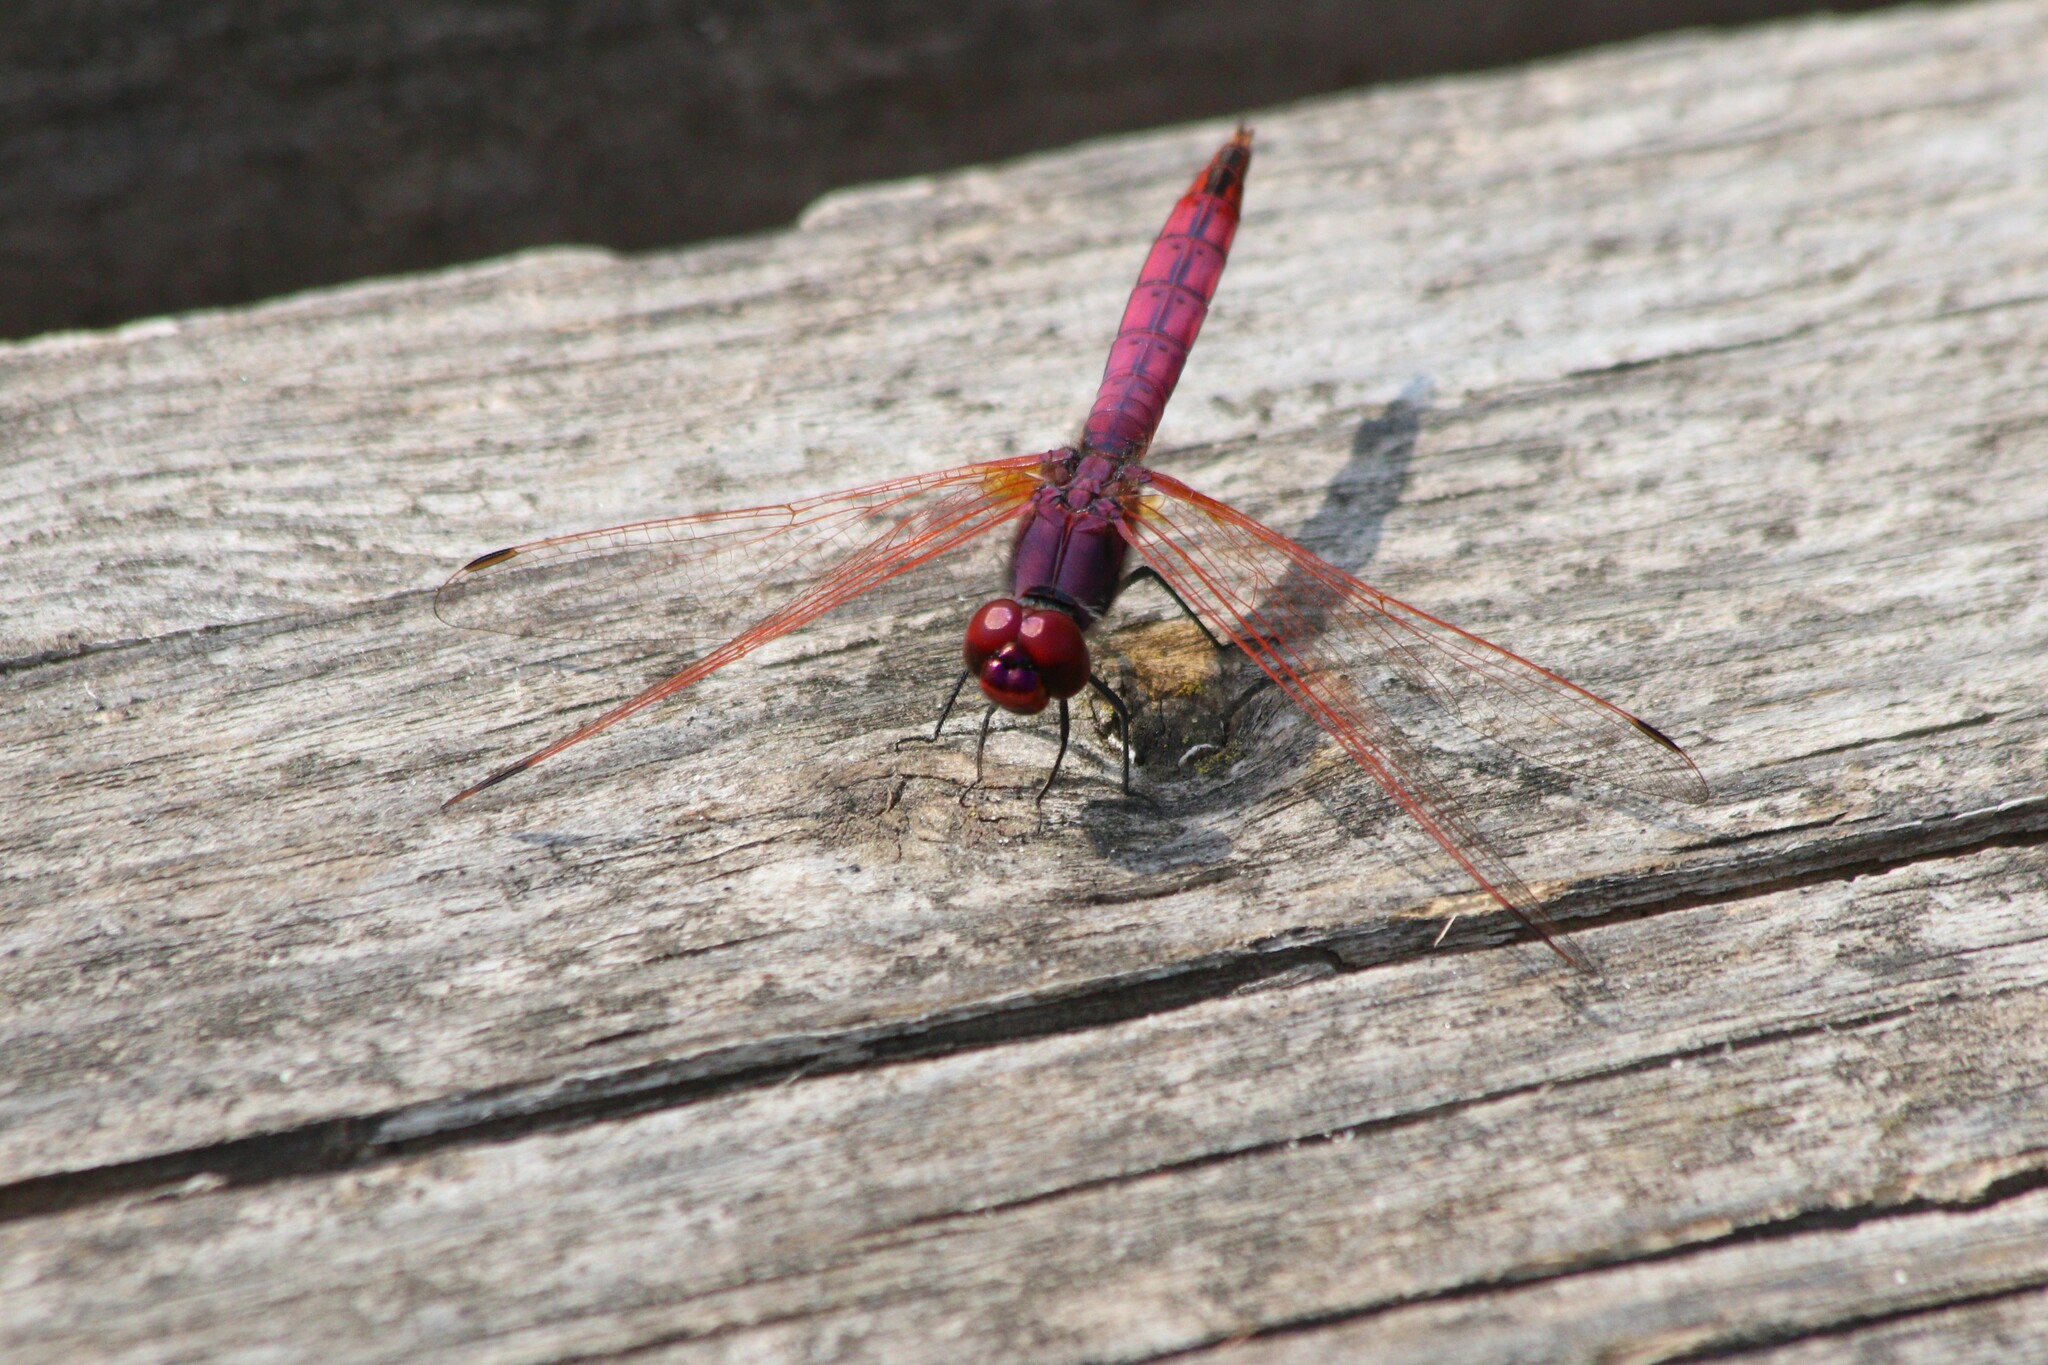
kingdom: Animalia
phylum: Arthropoda
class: Insecta
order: Odonata
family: Libellulidae
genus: Trithemis
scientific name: Trithemis annulata
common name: Violet dropwing
